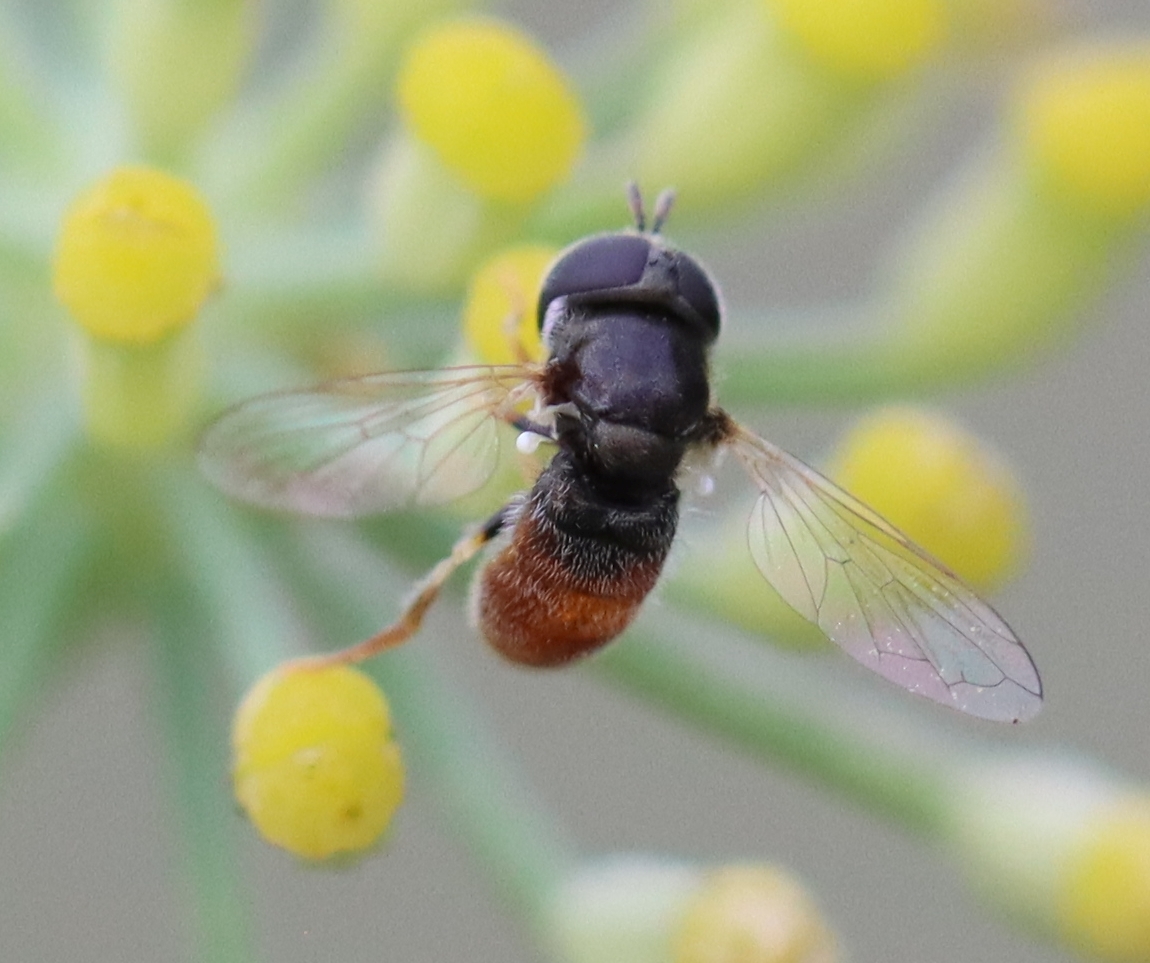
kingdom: Animalia
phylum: Arthropoda
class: Insecta
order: Diptera
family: Syrphidae
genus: Paragus
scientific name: Paragus haemorrhous
